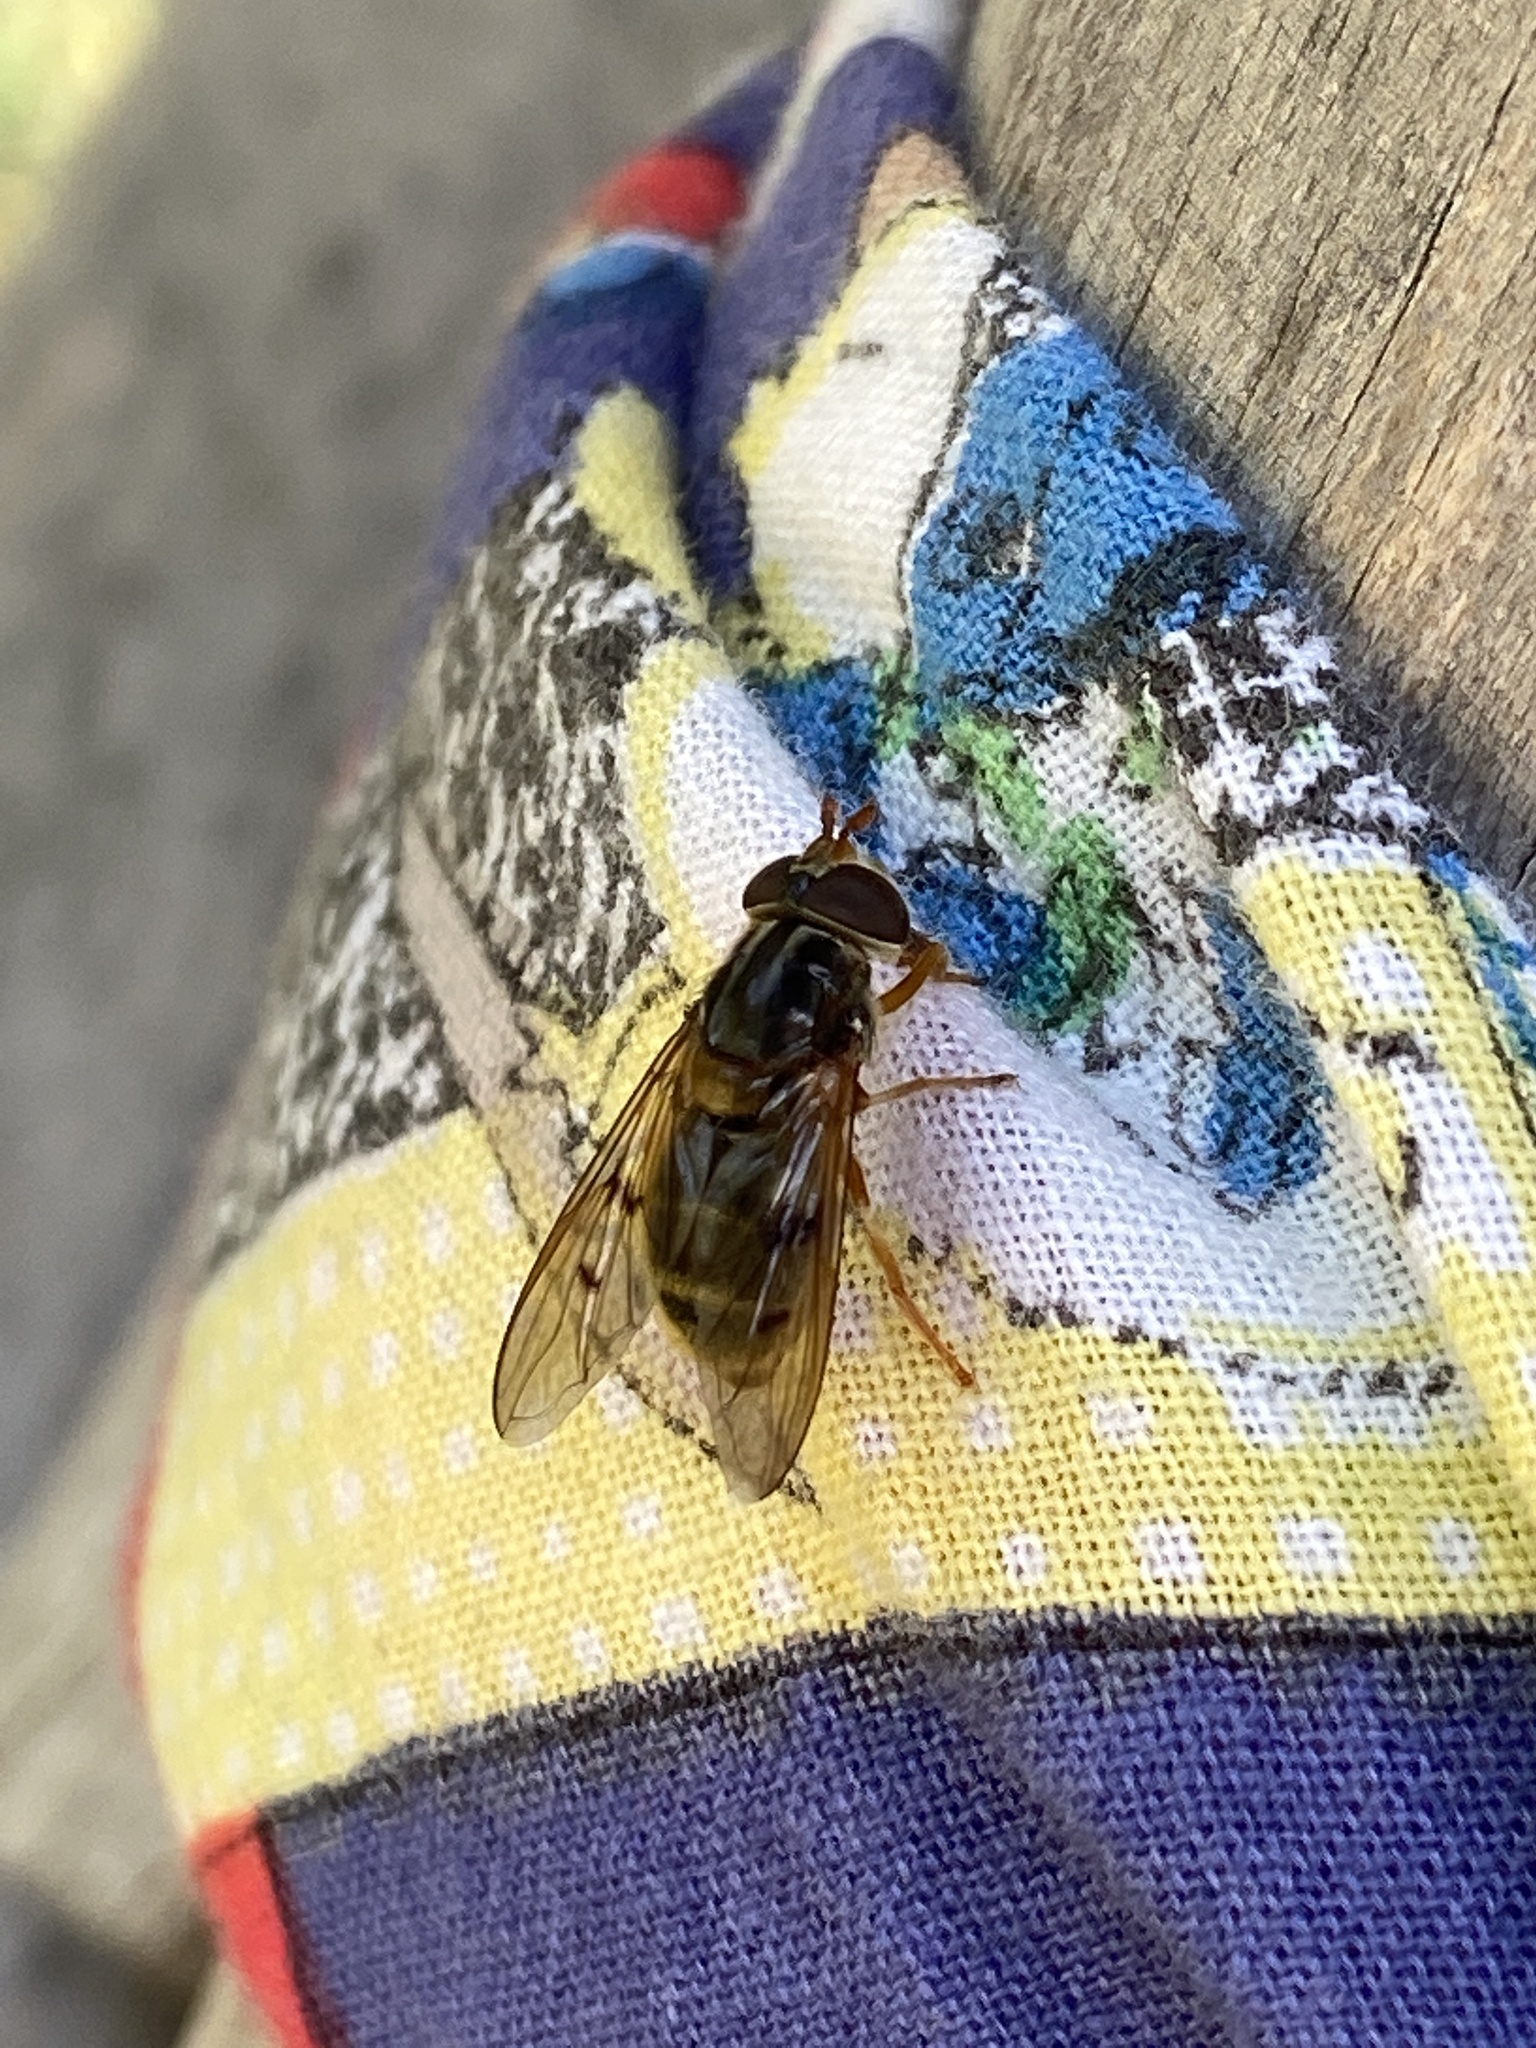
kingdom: Animalia
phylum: Arthropoda
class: Insecta
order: Diptera
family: Syrphidae
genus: Ferdinandea
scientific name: Ferdinandea cuprea
